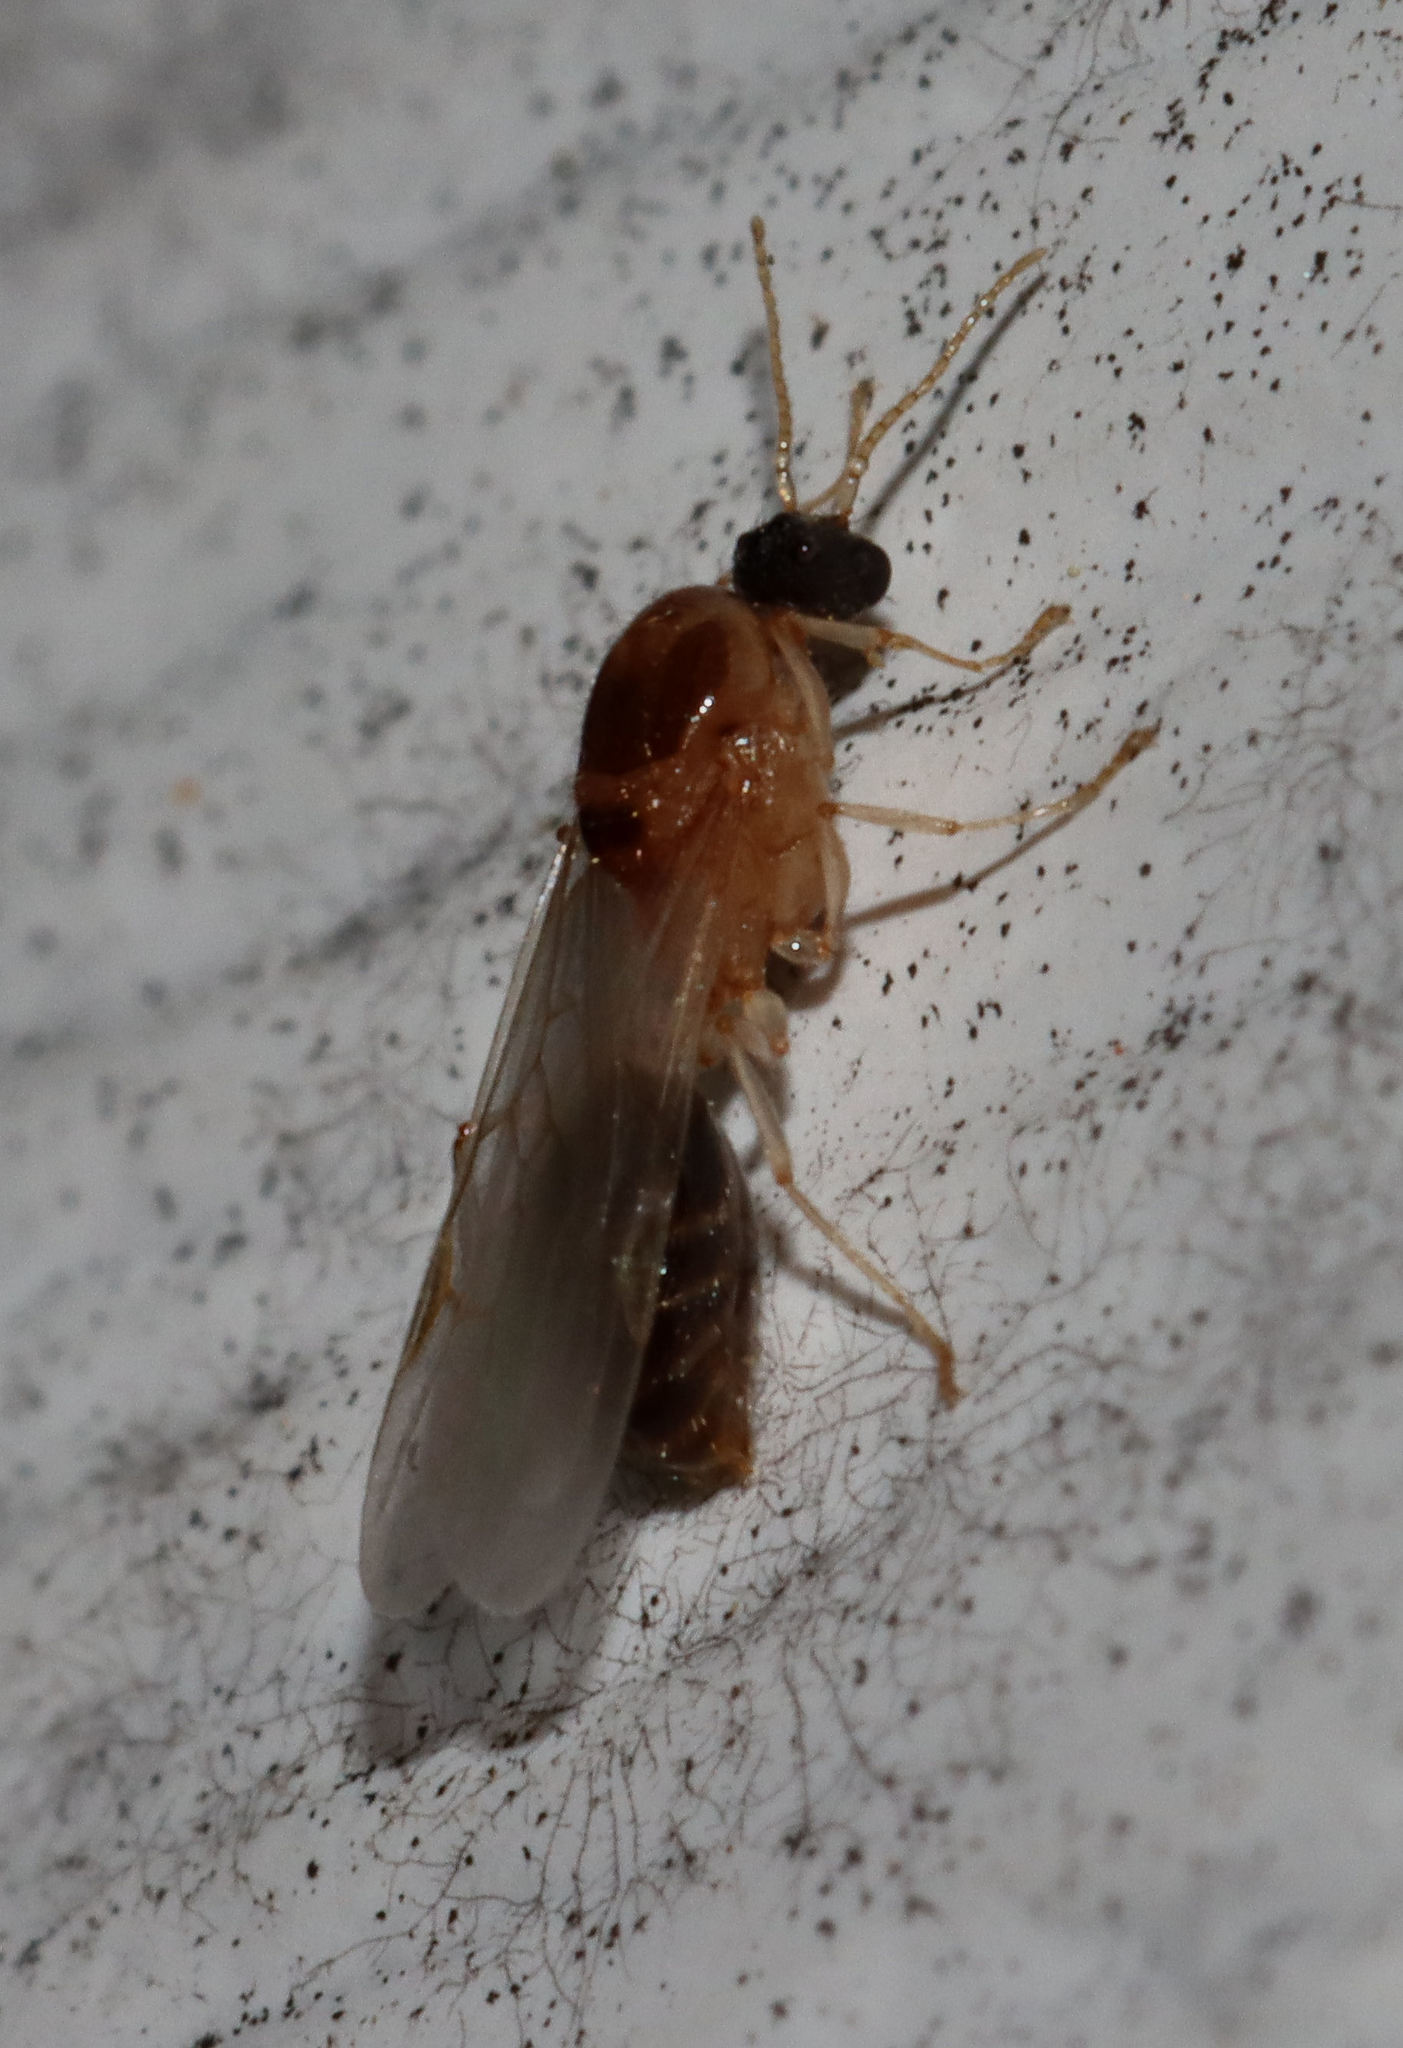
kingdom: Animalia
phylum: Arthropoda
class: Insecta
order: Hymenoptera
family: Formicidae
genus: Pheidole
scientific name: Pheidole
